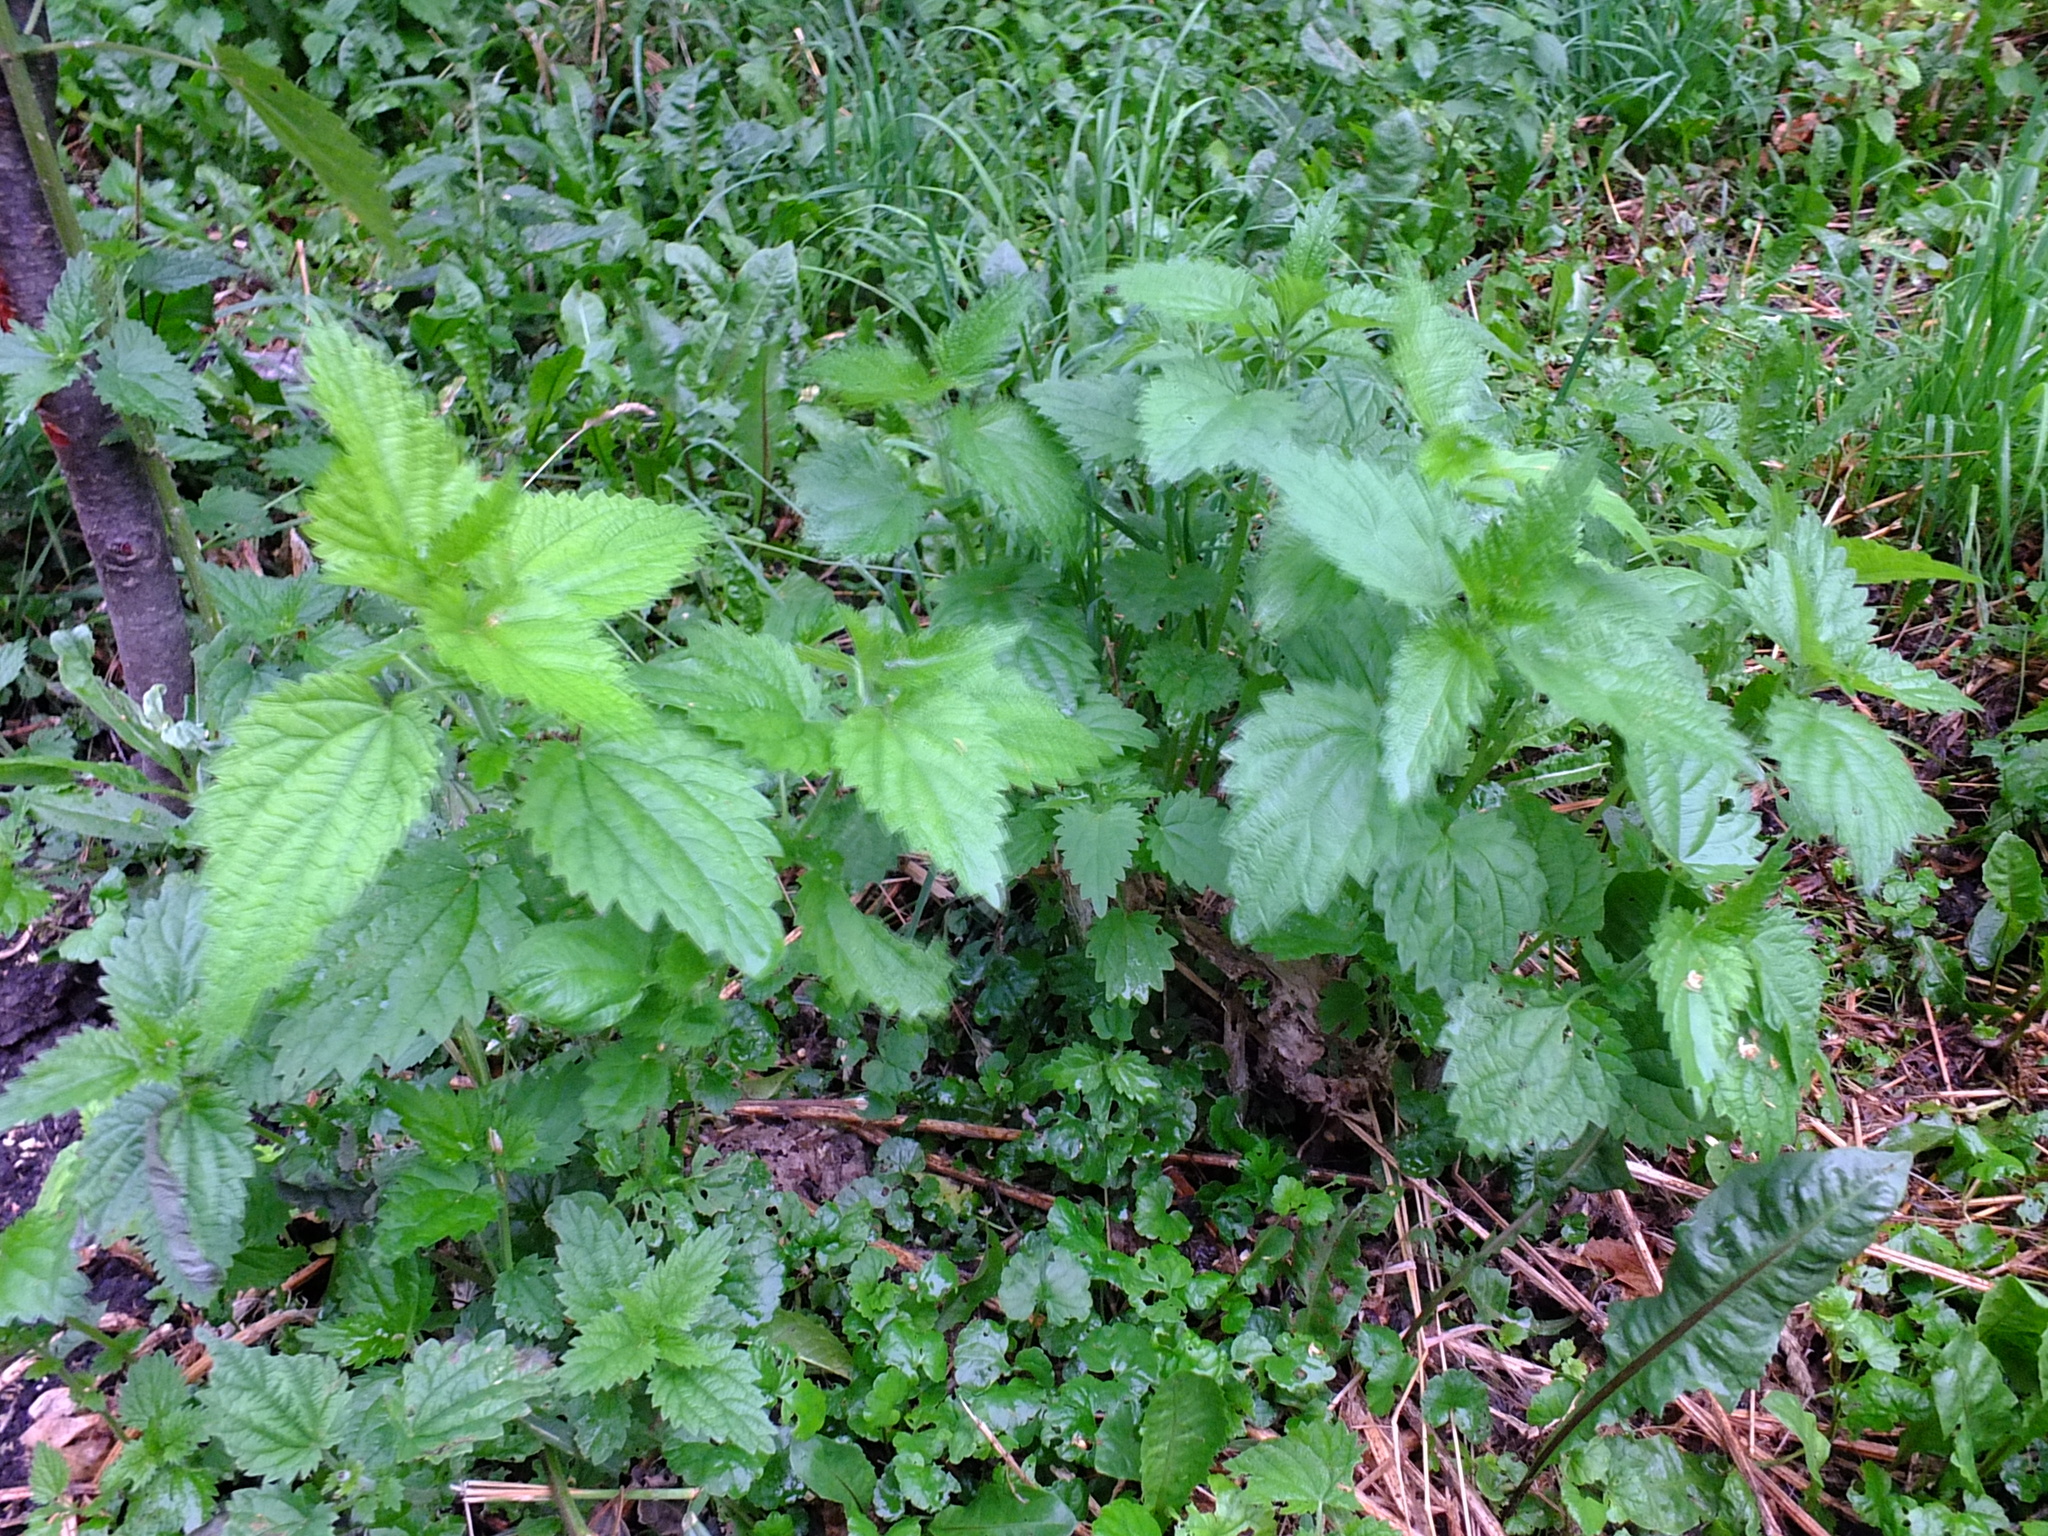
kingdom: Plantae
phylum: Tracheophyta
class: Magnoliopsida
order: Rosales
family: Urticaceae
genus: Urtica
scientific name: Urtica dioica
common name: Common nettle
